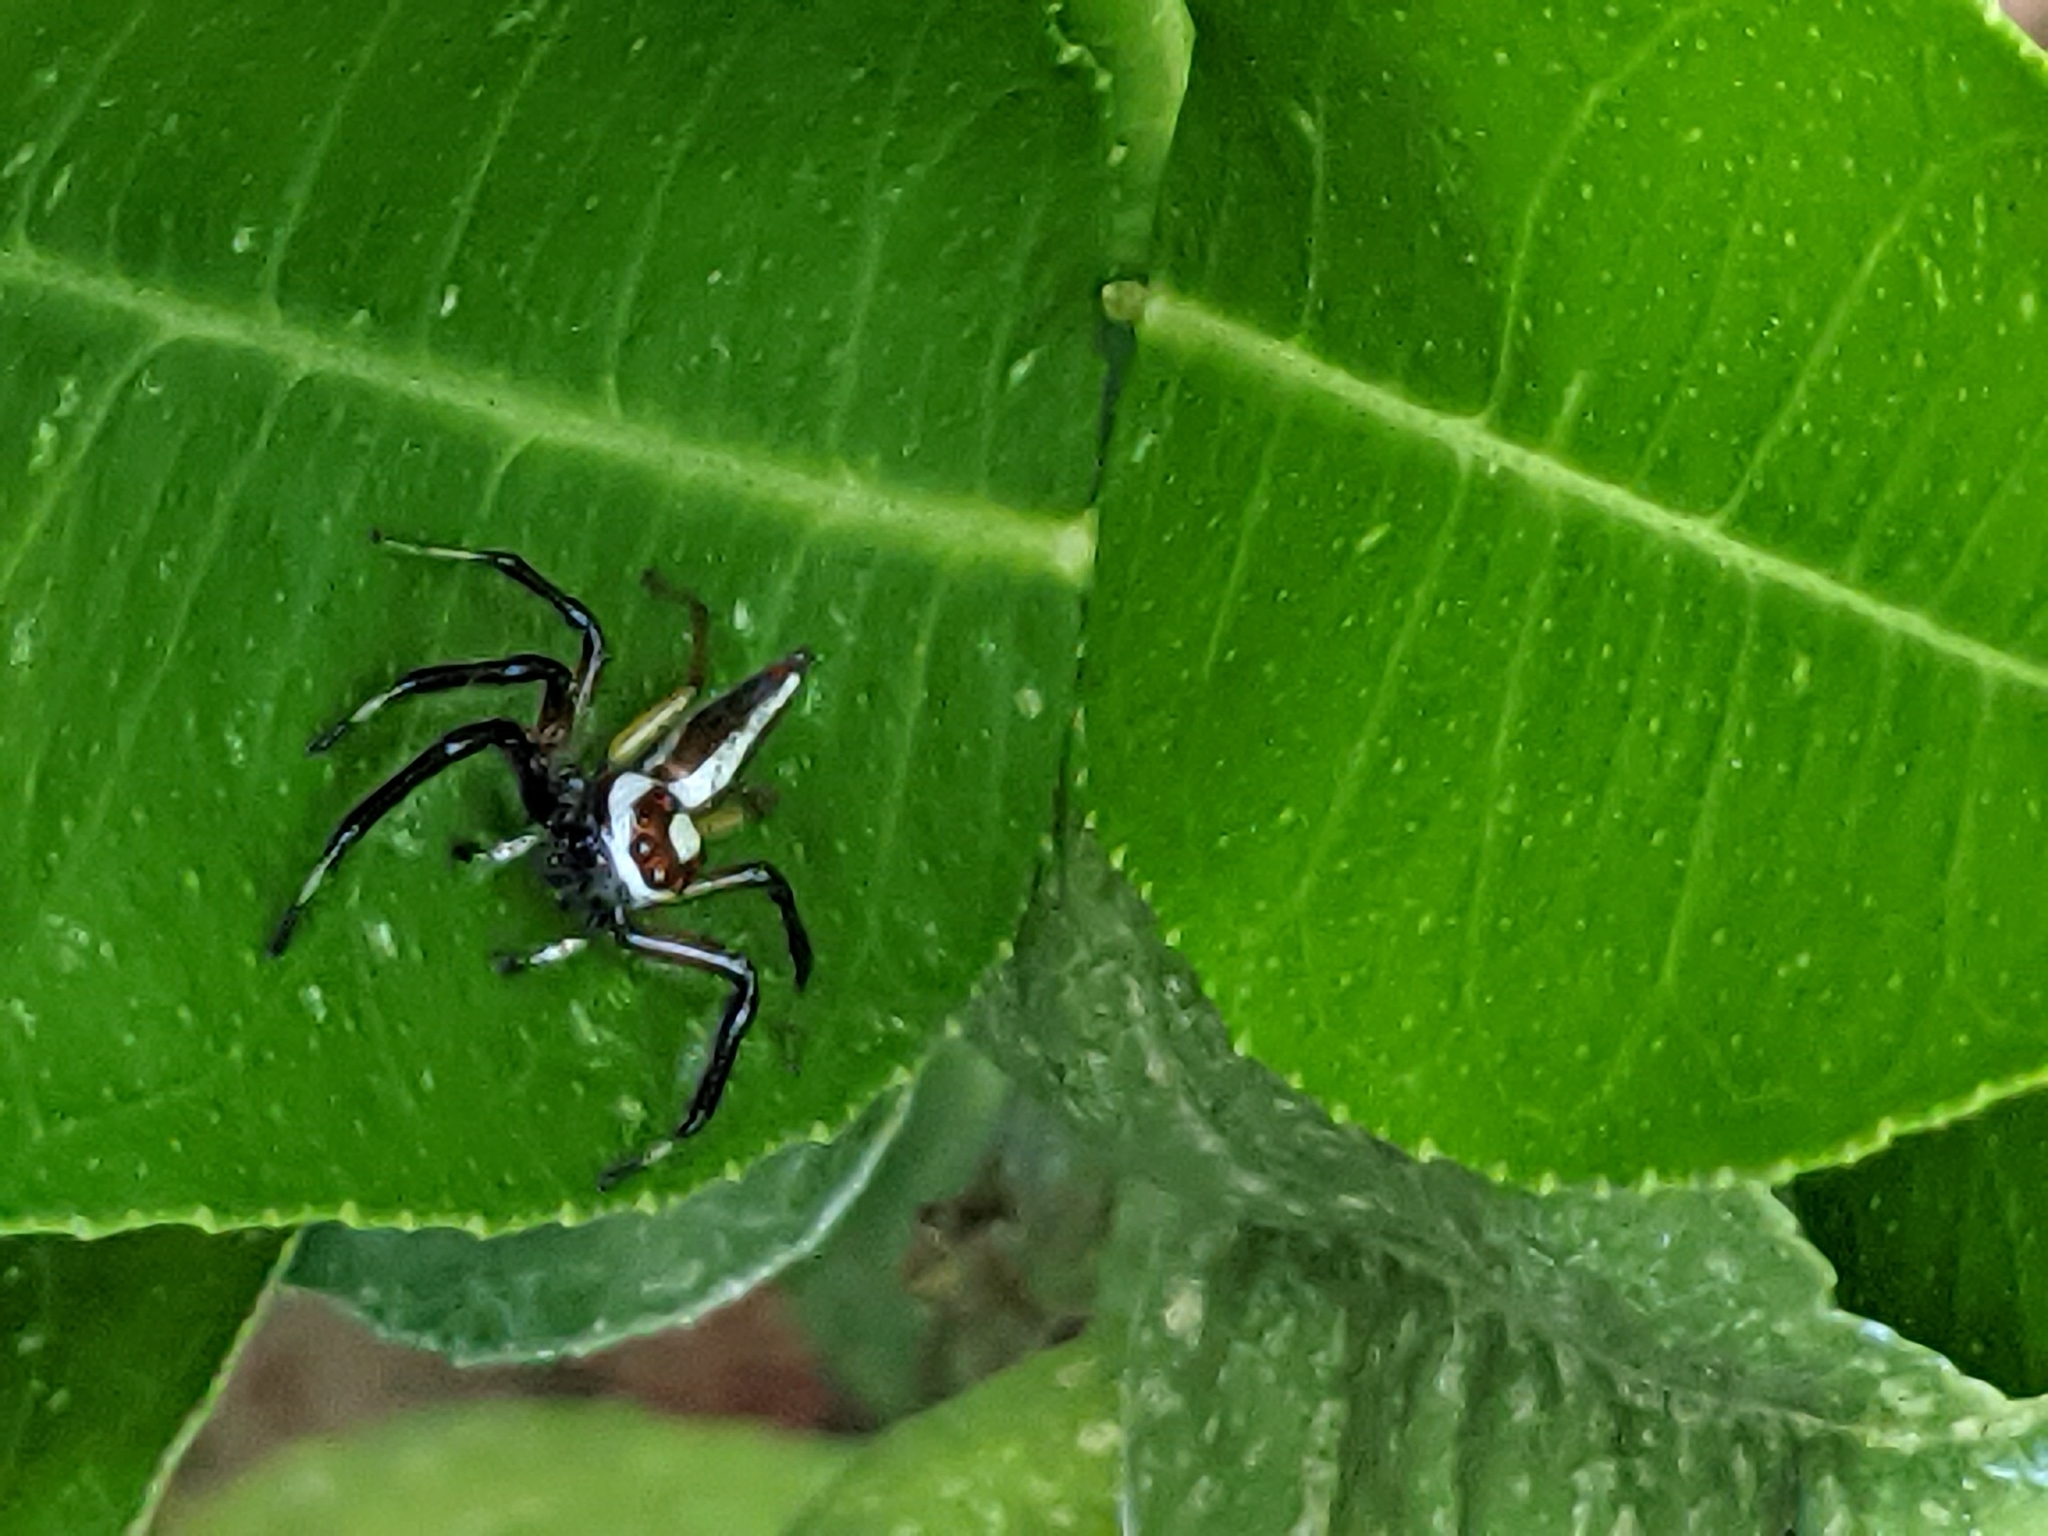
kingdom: Animalia
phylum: Arthropoda
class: Arachnida
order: Araneae
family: Salticidae
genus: Telamonia
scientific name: Telamonia dimidiata
